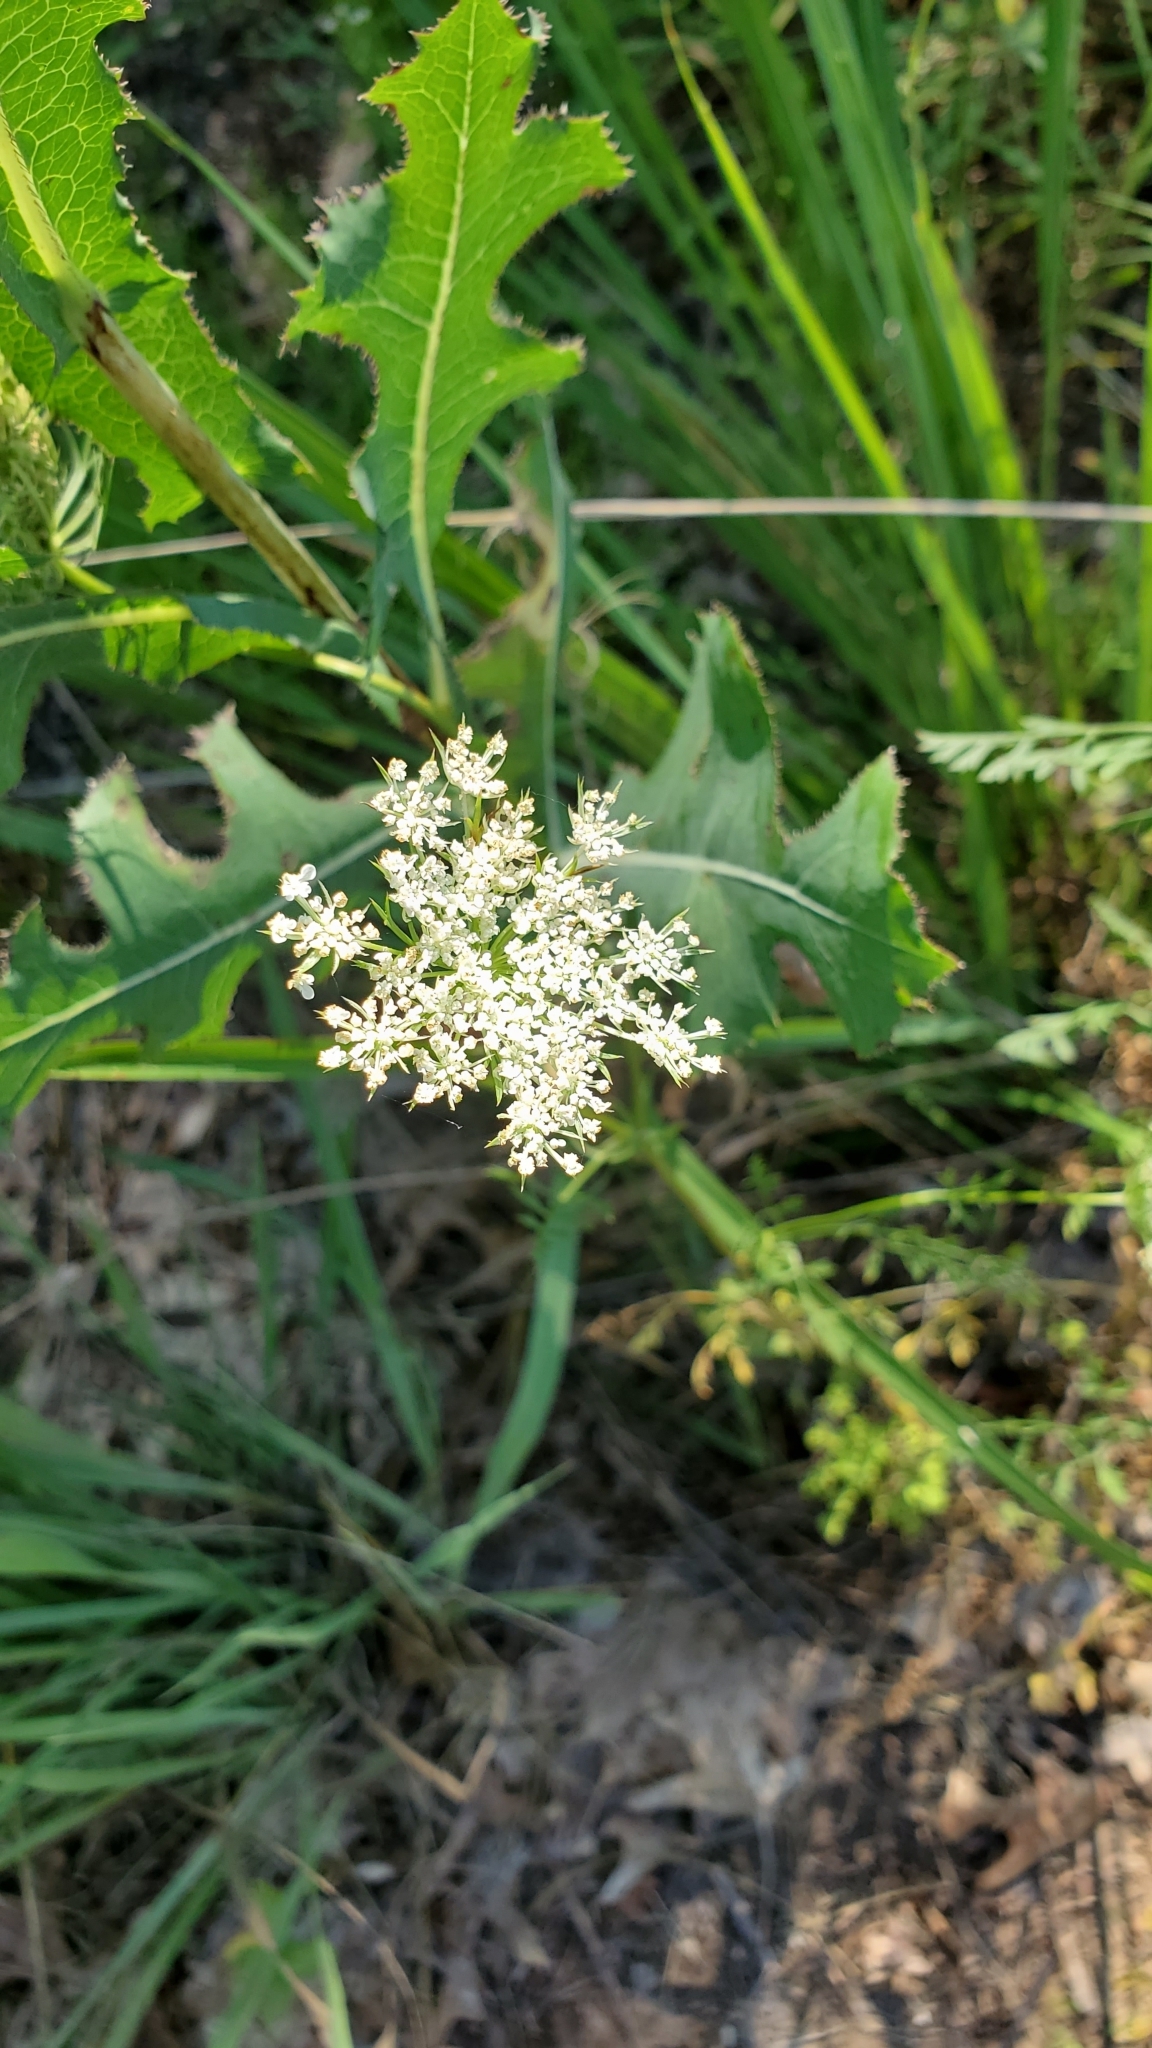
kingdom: Plantae
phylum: Tracheophyta
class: Magnoliopsida
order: Apiales
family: Apiaceae
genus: Daucus
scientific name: Daucus carota
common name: Wild carrot
